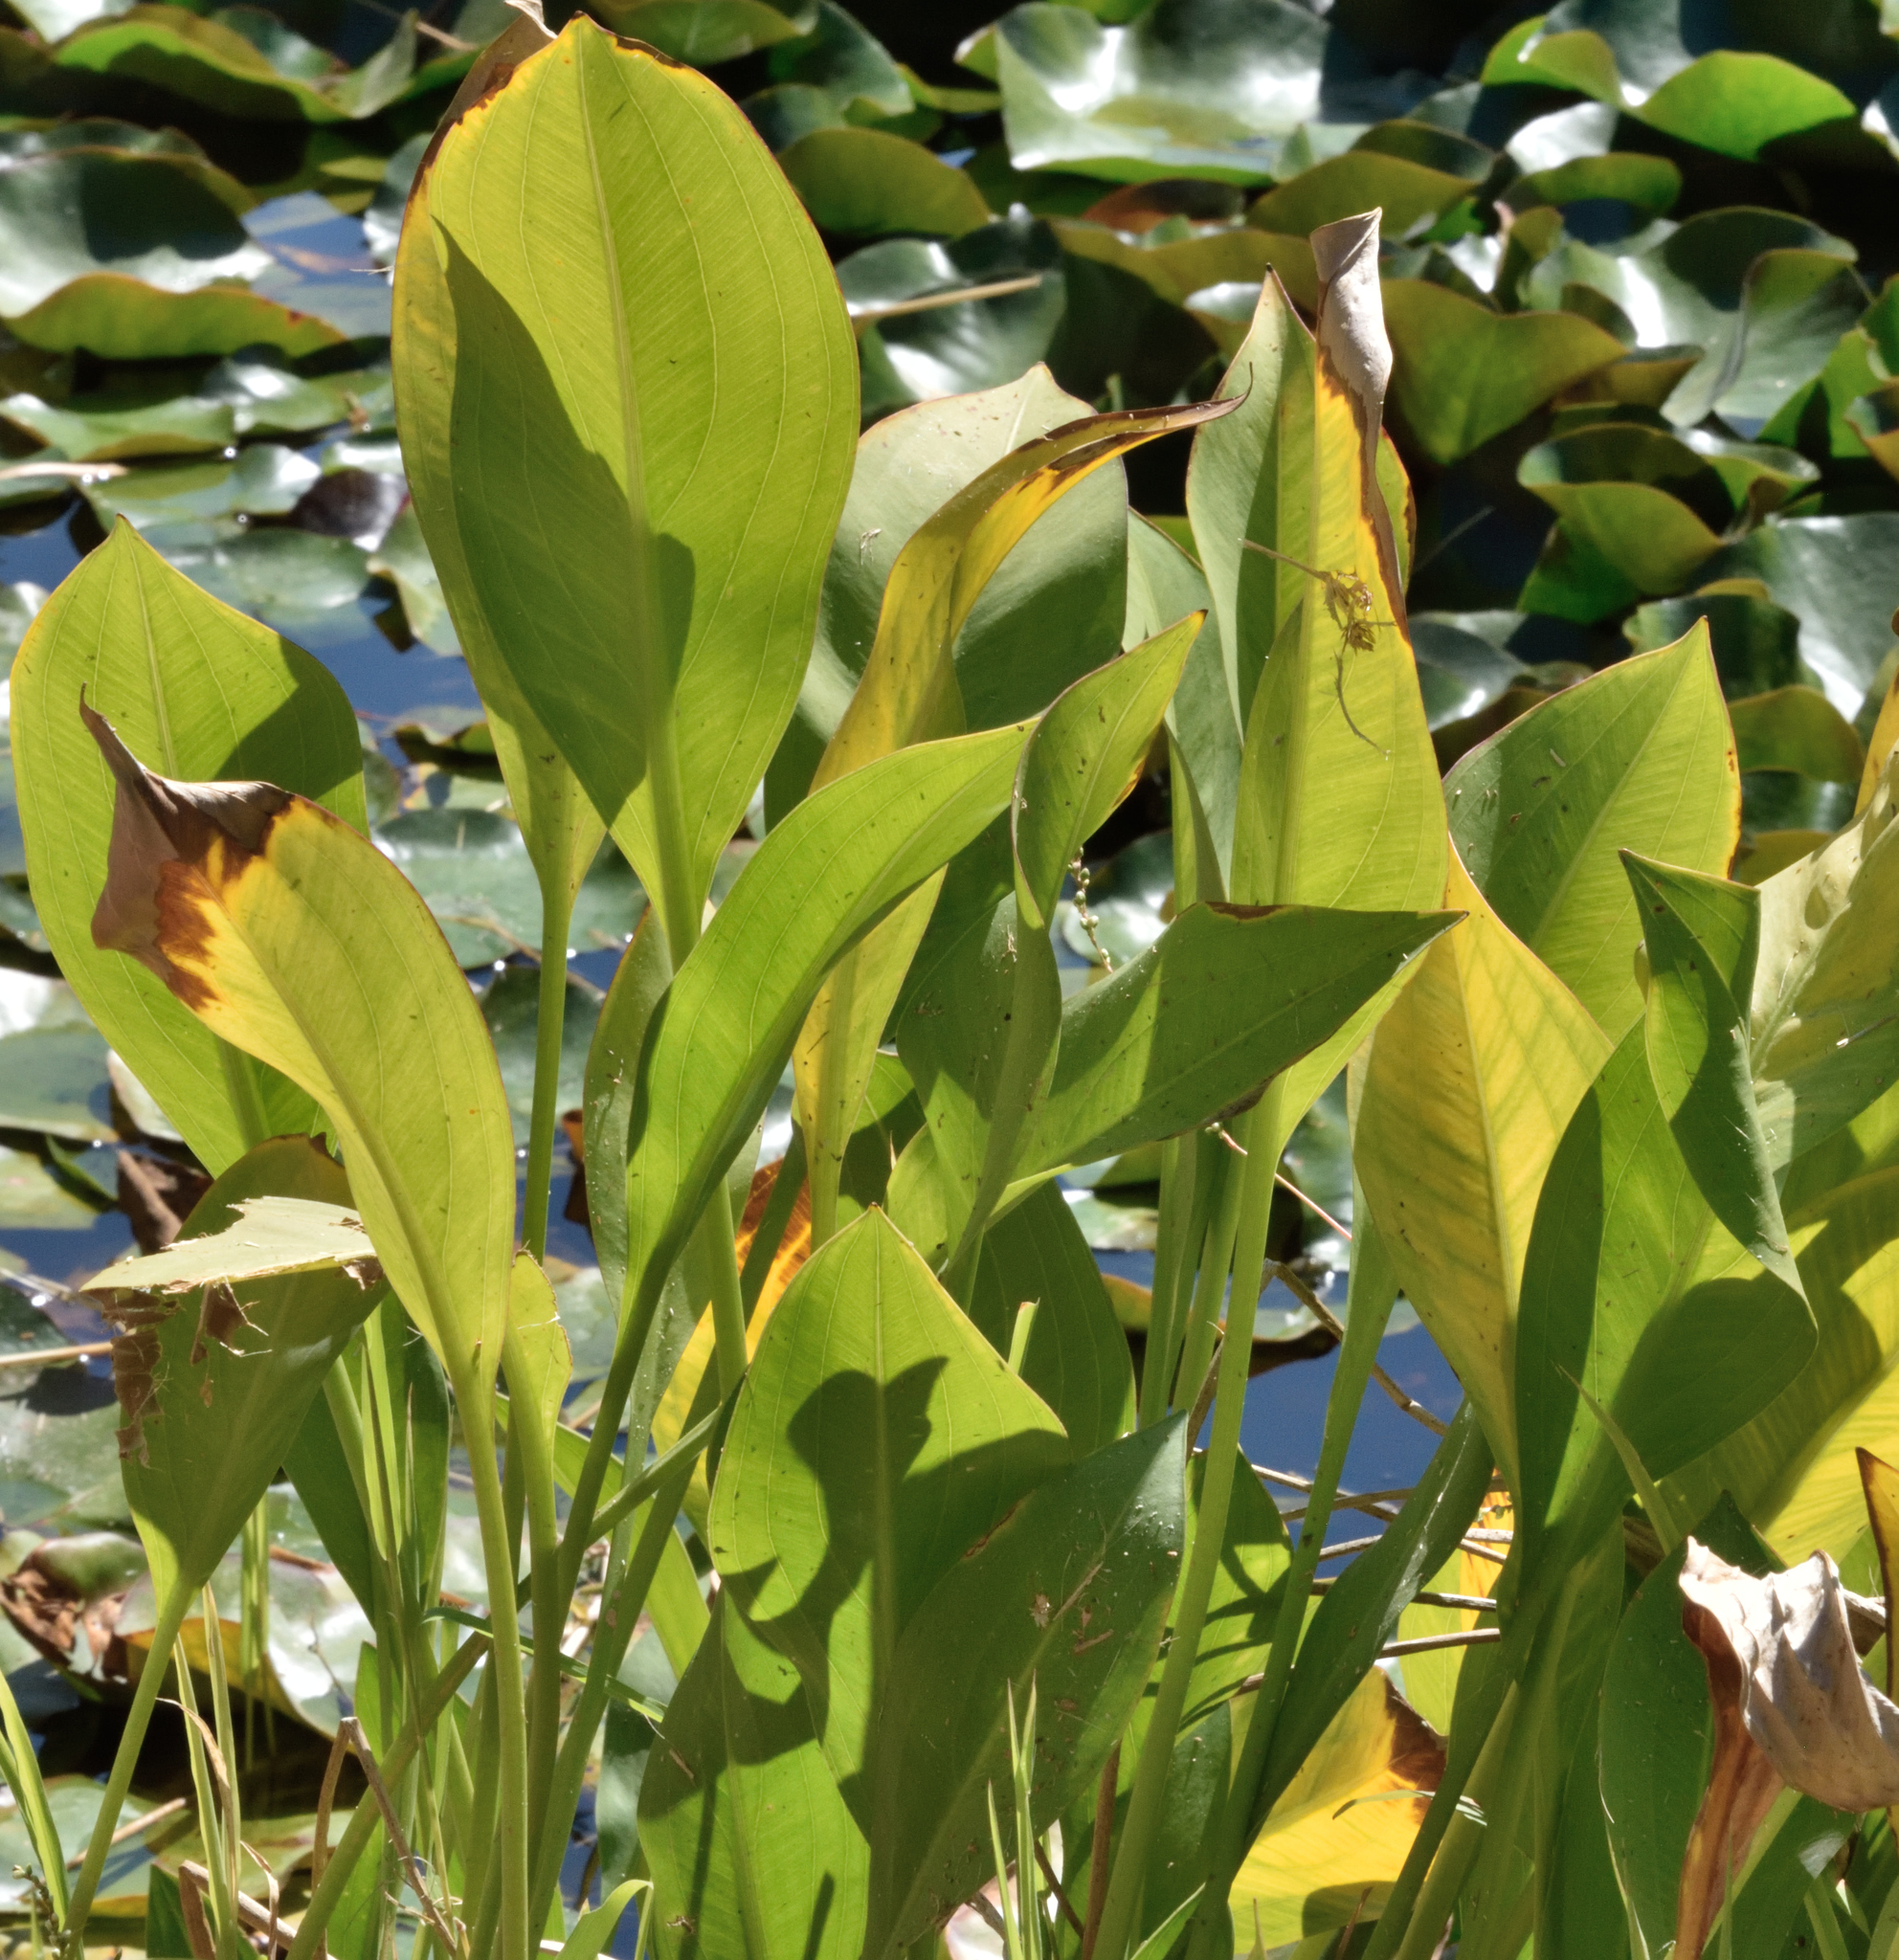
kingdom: Plantae
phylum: Tracheophyta
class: Liliopsida
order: Alismatales
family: Alismataceae
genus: Sagittaria
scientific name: Sagittaria platyphylla
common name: Broad-leaf arrowhead
